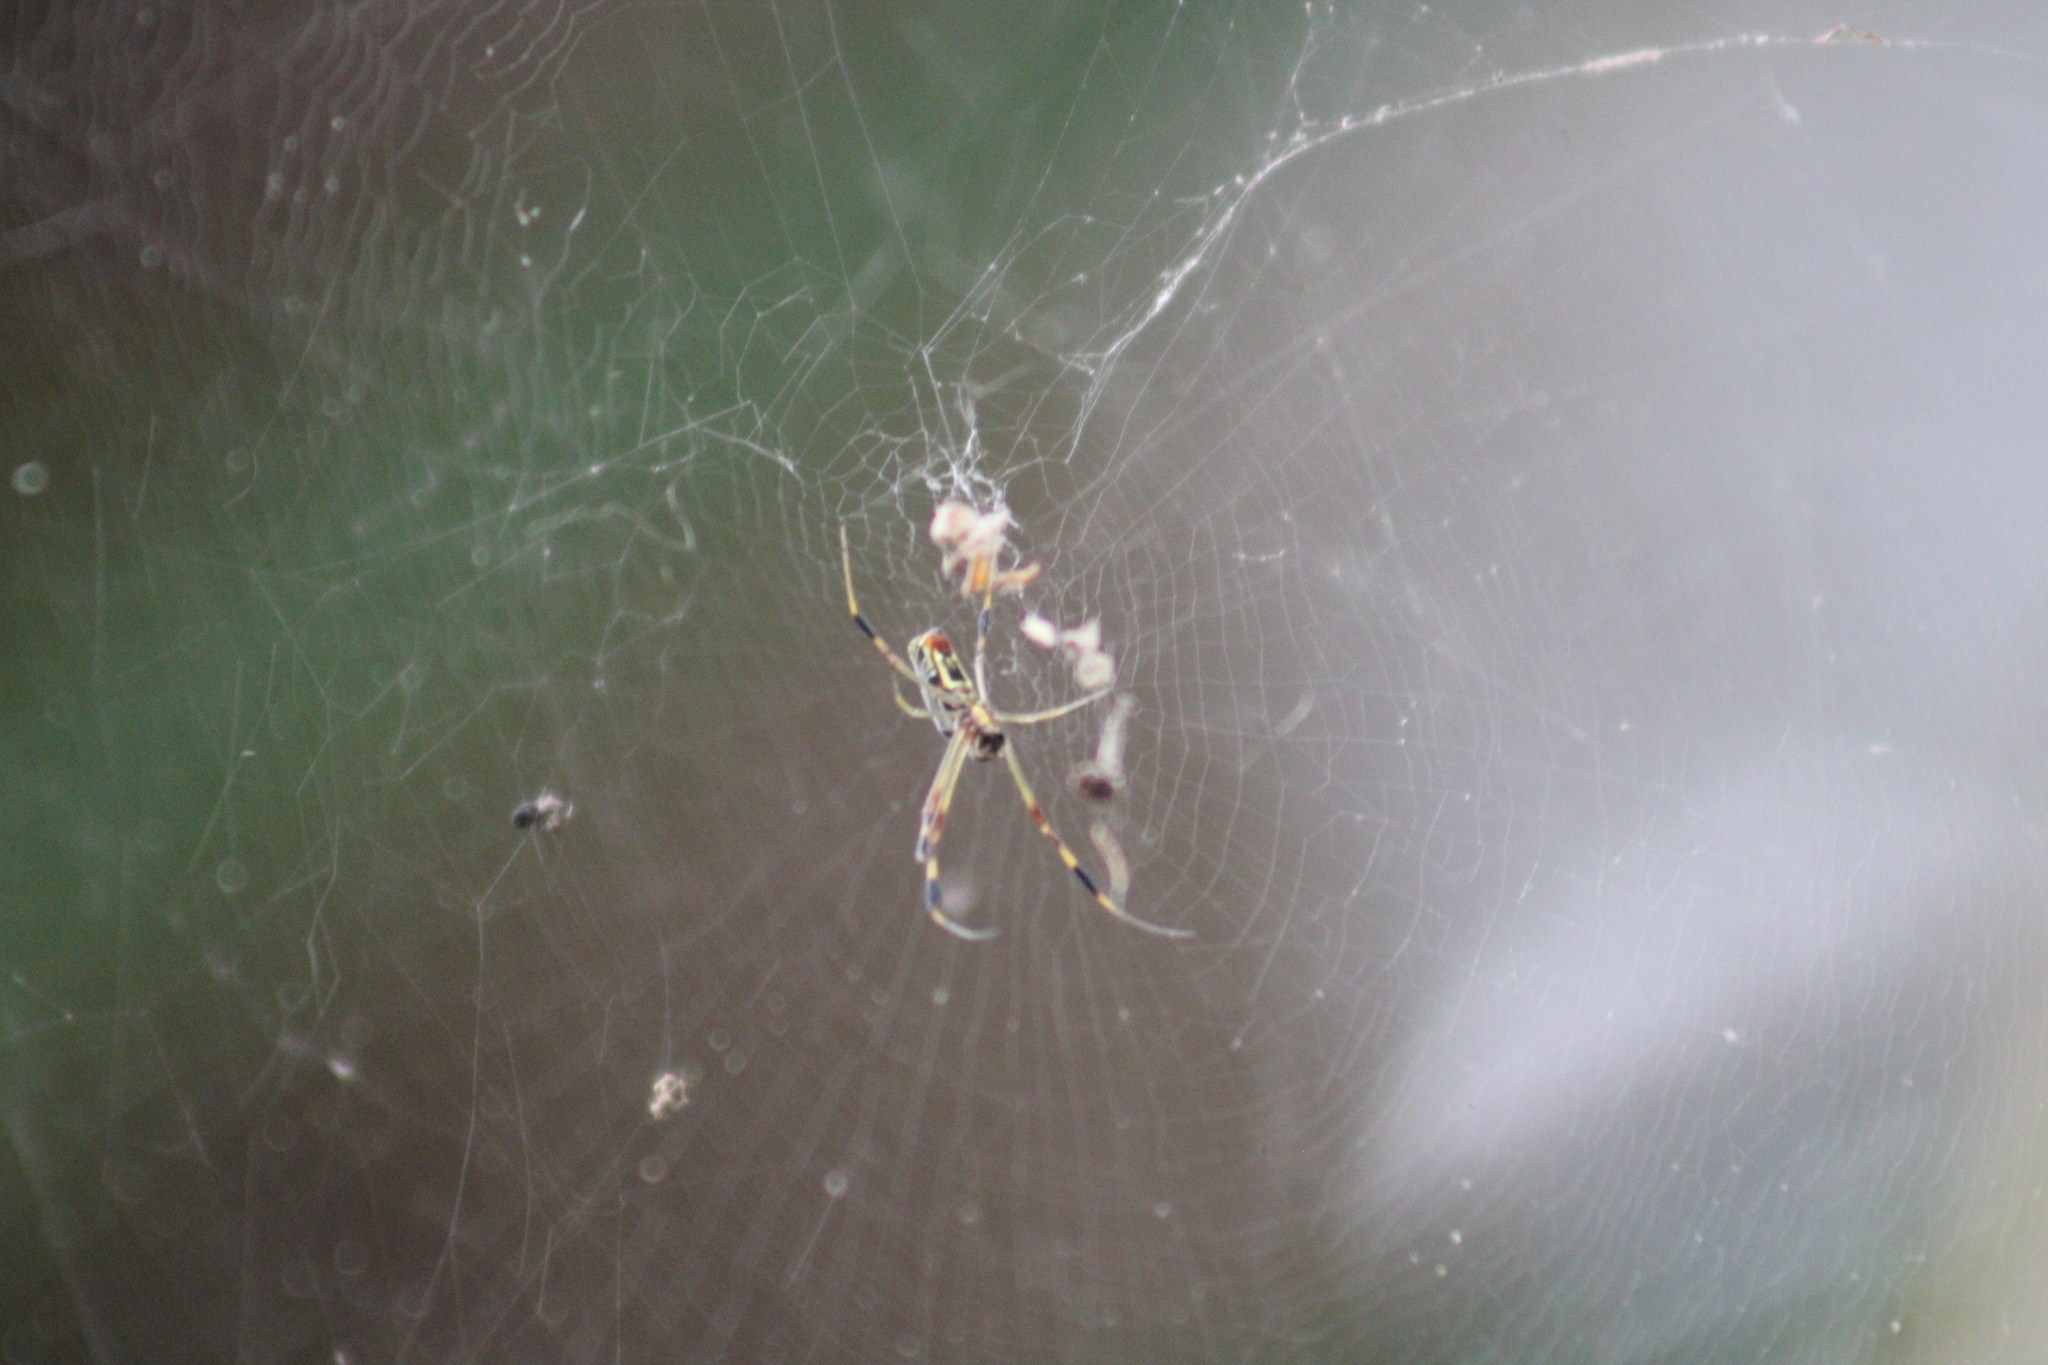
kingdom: Animalia
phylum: Arthropoda
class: Arachnida
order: Araneae
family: Araneidae
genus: Trichonephila
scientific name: Trichonephila clavipes
